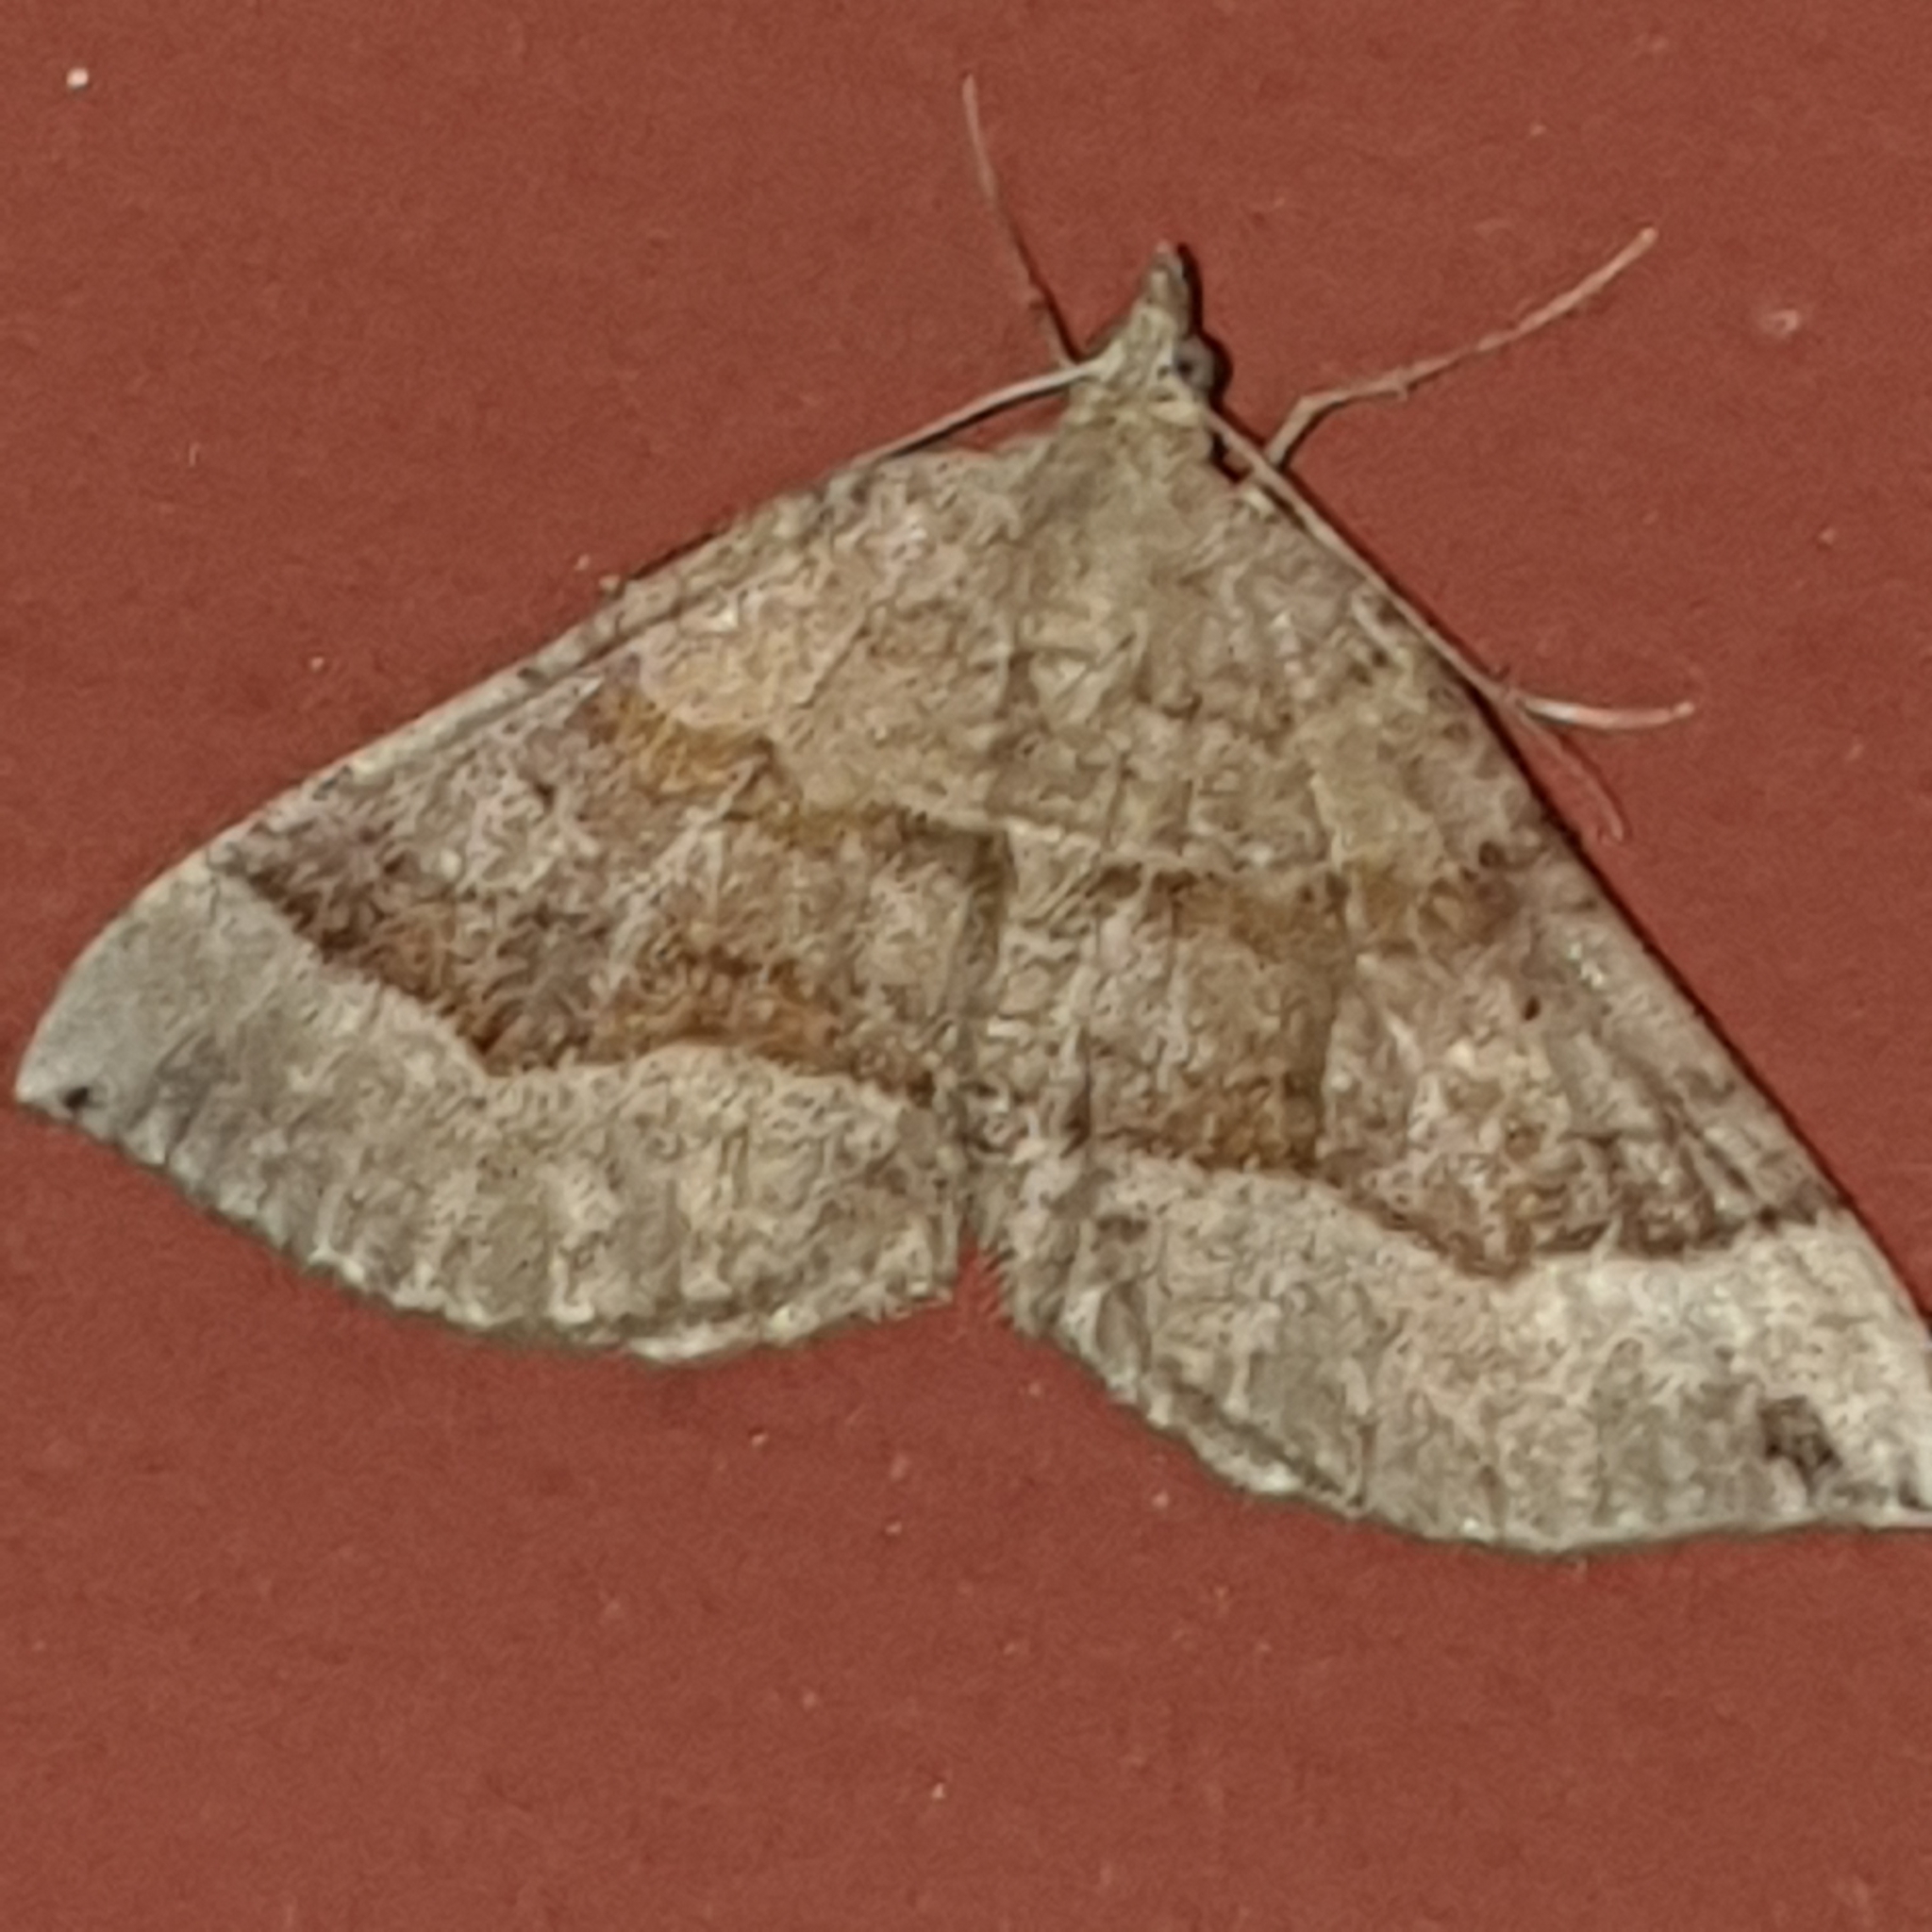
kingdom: Animalia
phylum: Arthropoda
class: Insecta
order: Lepidoptera
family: Geometridae
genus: Scotopteryx
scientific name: Scotopteryx chenopodiata
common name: Shaded broad-bar
